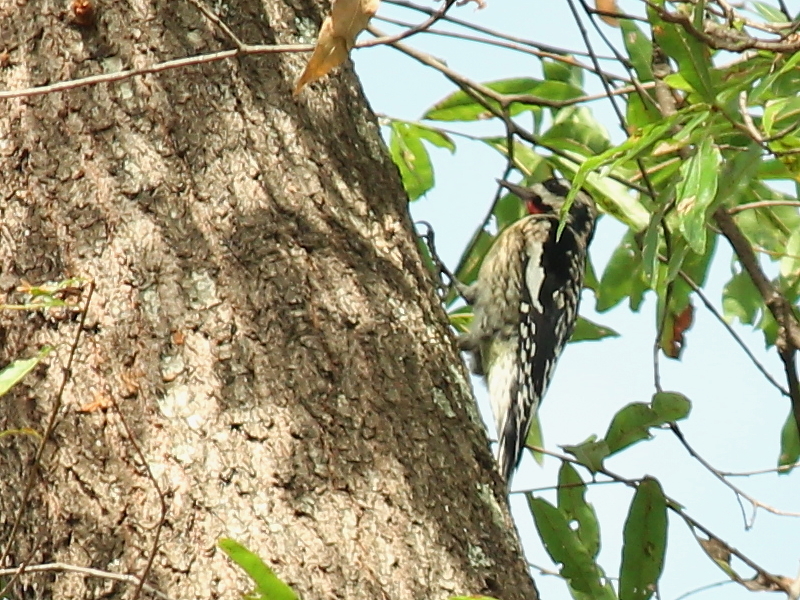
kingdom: Animalia
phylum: Chordata
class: Aves
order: Piciformes
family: Picidae
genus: Sphyrapicus
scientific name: Sphyrapicus varius
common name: Yellow-bellied sapsucker
